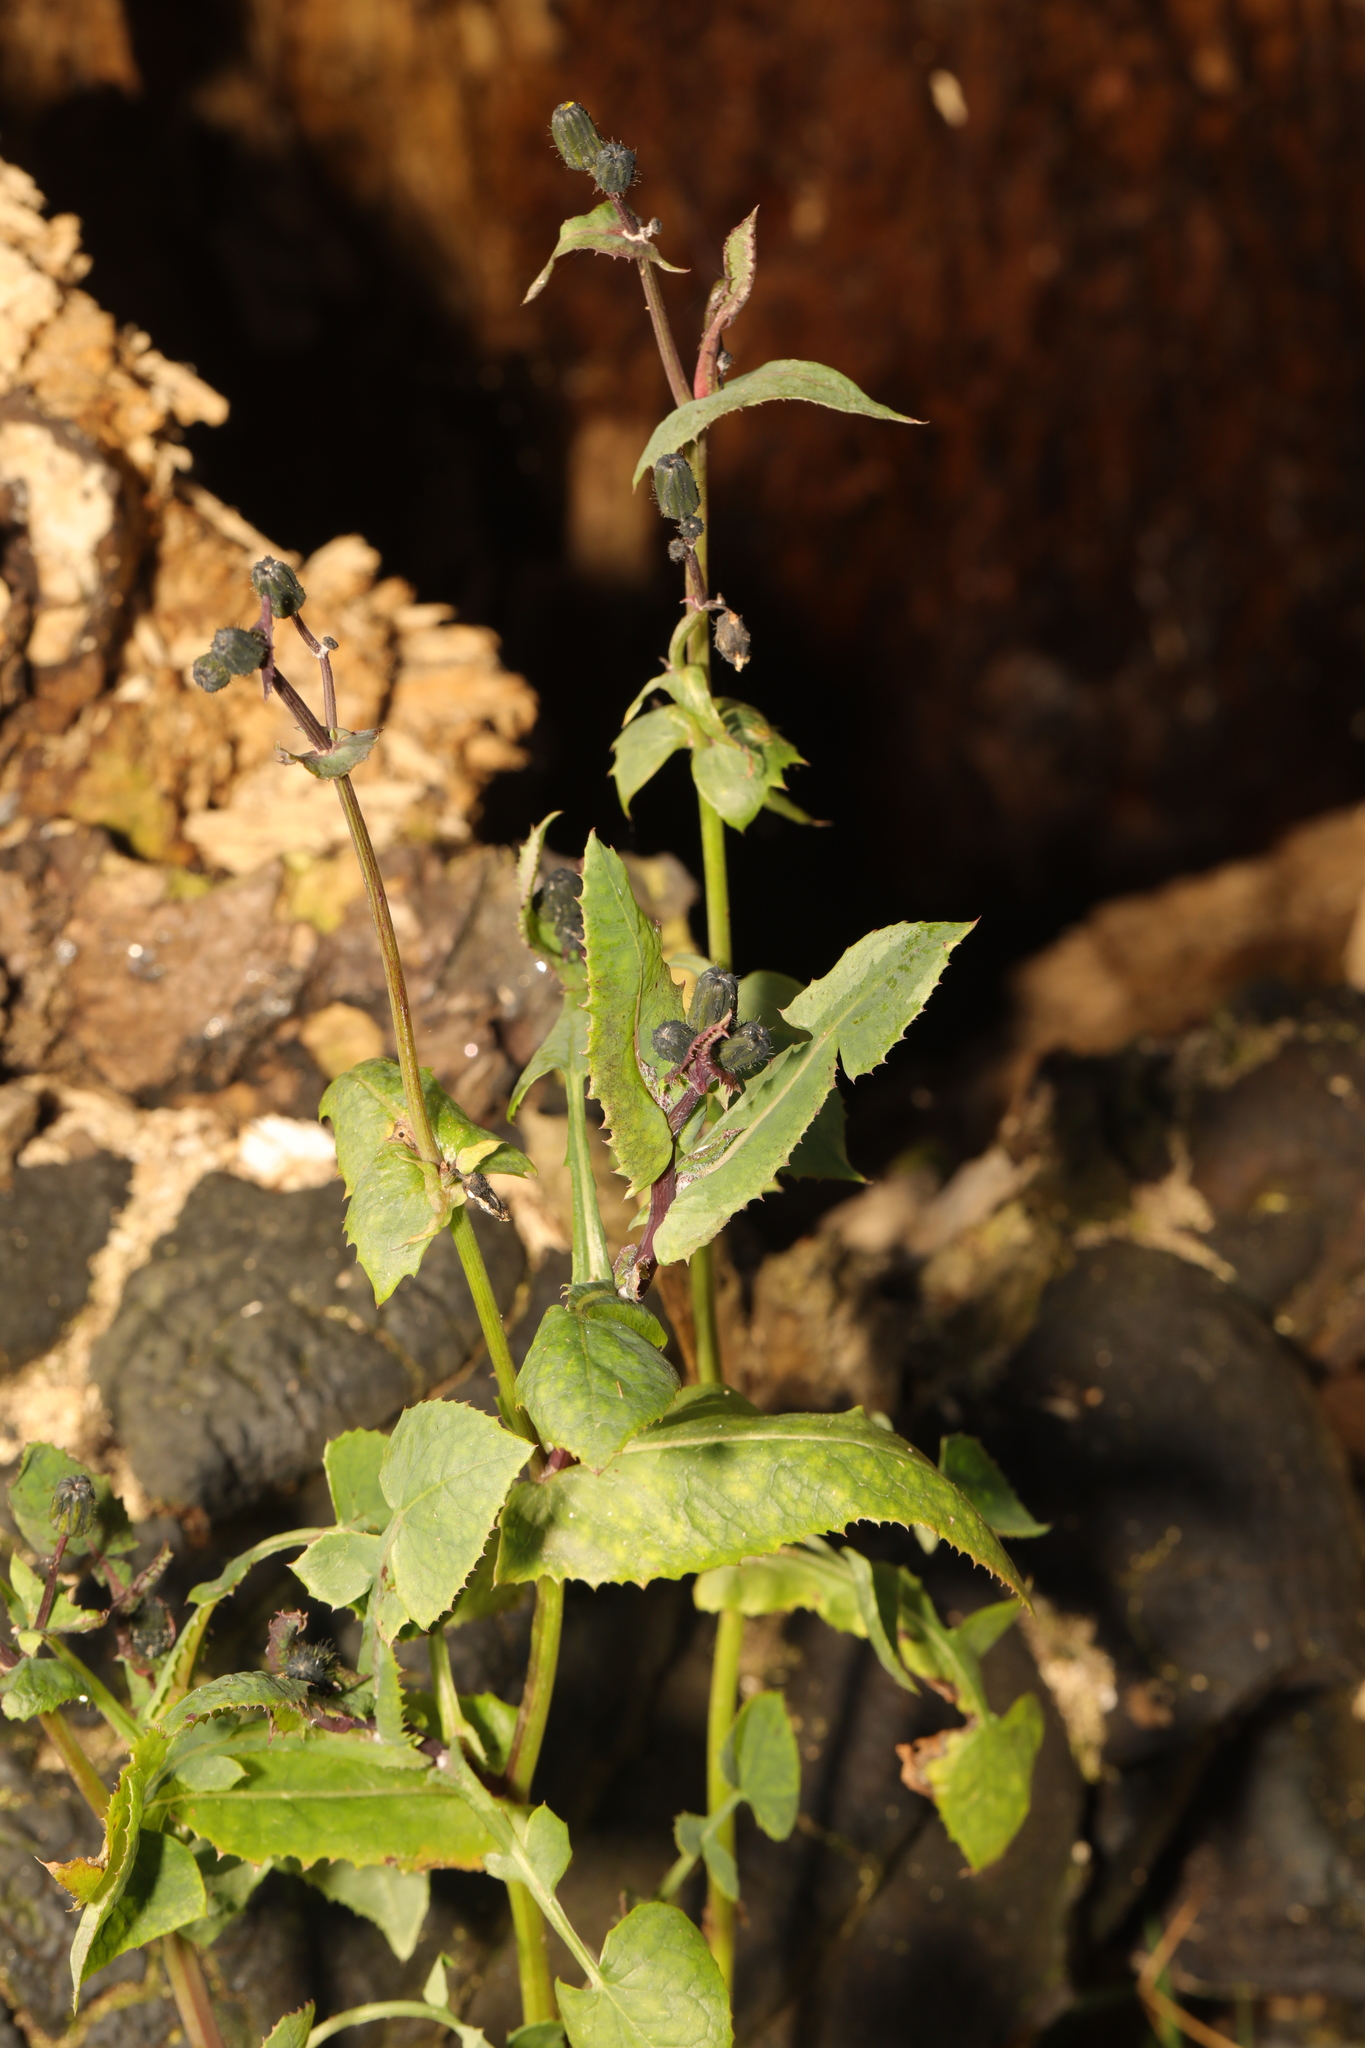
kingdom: Plantae
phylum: Tracheophyta
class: Magnoliopsida
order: Asterales
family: Asteraceae
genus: Sonchus
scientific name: Sonchus oleraceus
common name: Common sowthistle
